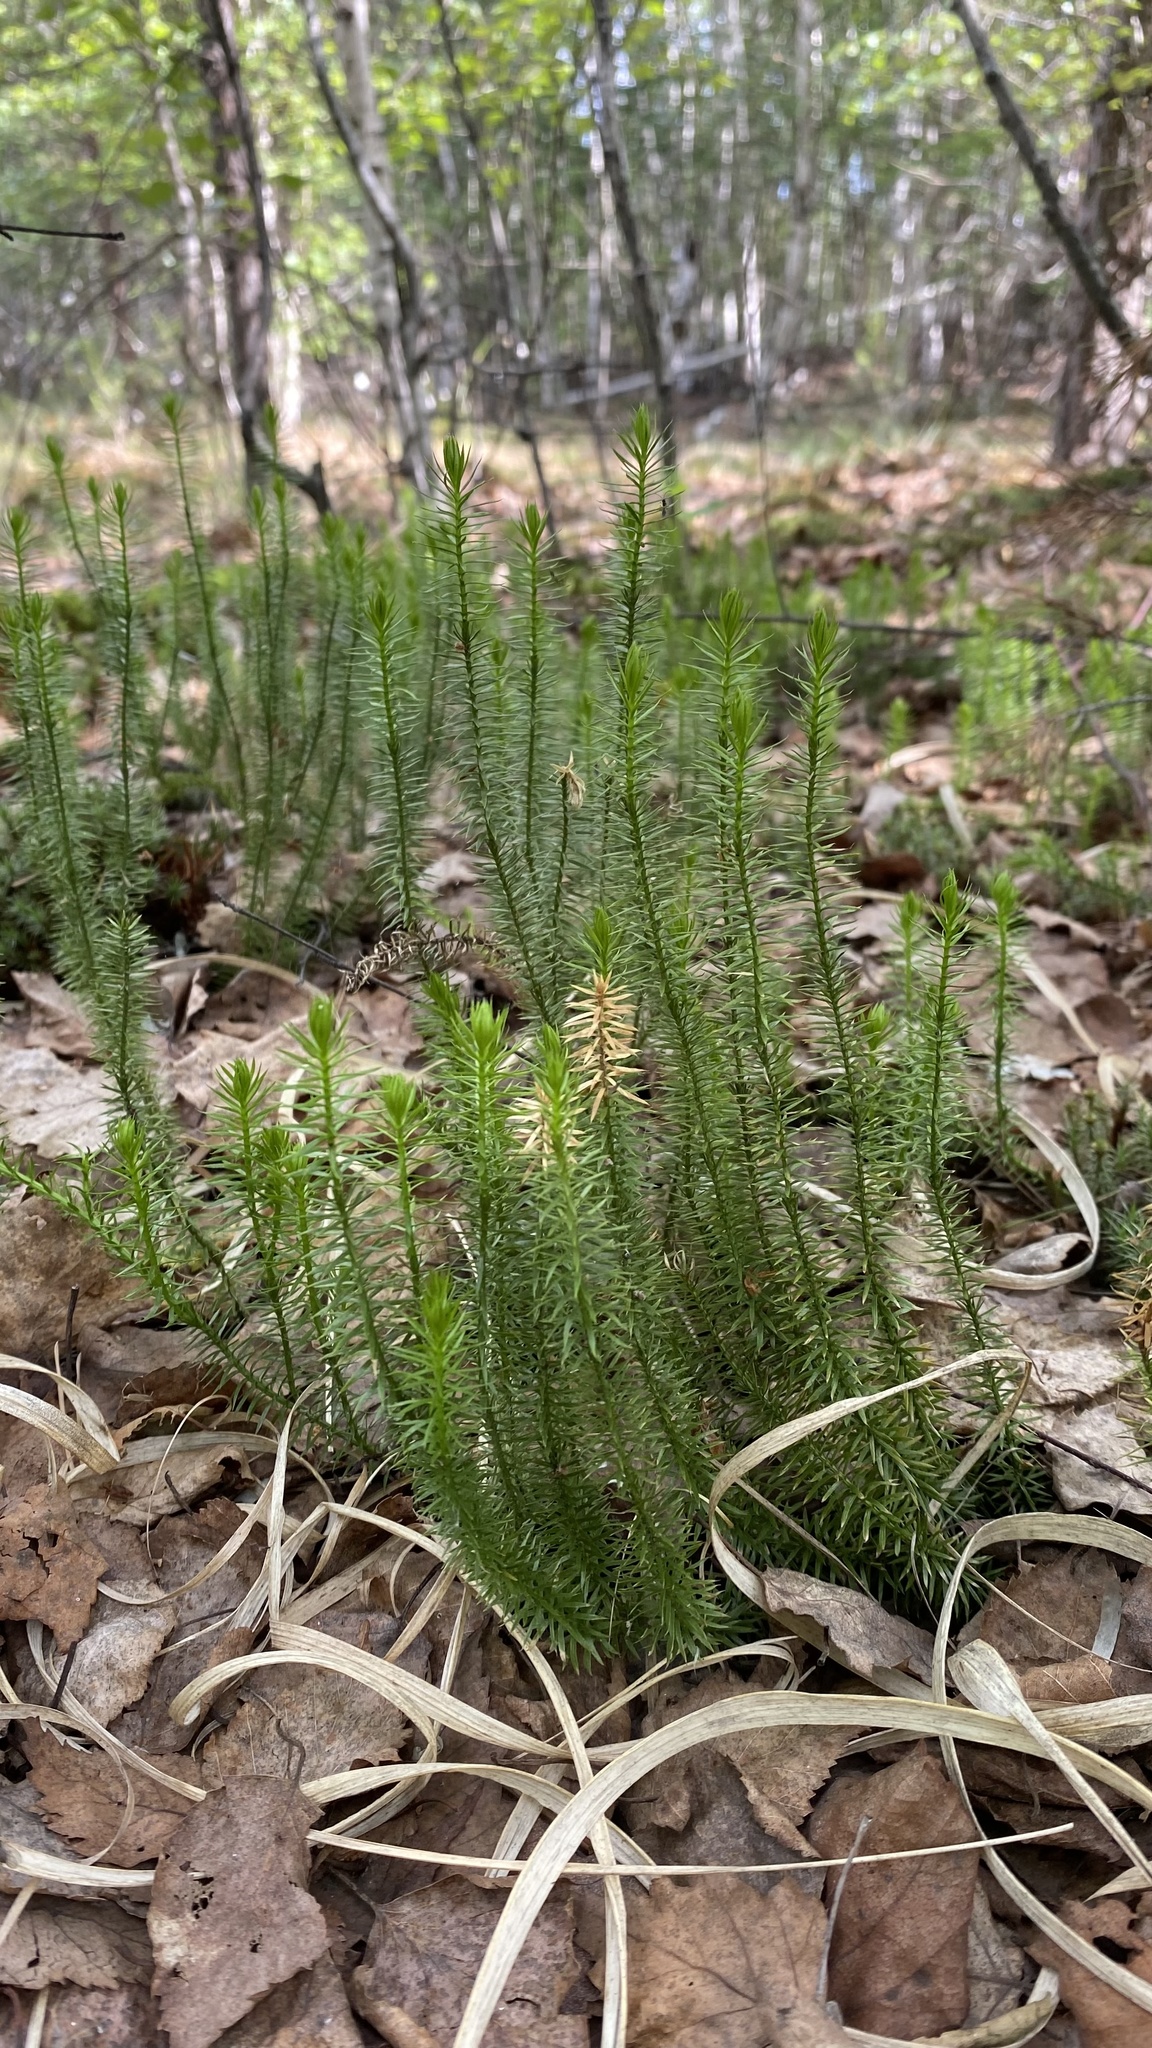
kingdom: Plantae
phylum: Tracheophyta
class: Lycopodiopsida
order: Lycopodiales
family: Lycopodiaceae
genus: Spinulum
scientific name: Spinulum annotinum
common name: Interrupted club-moss
